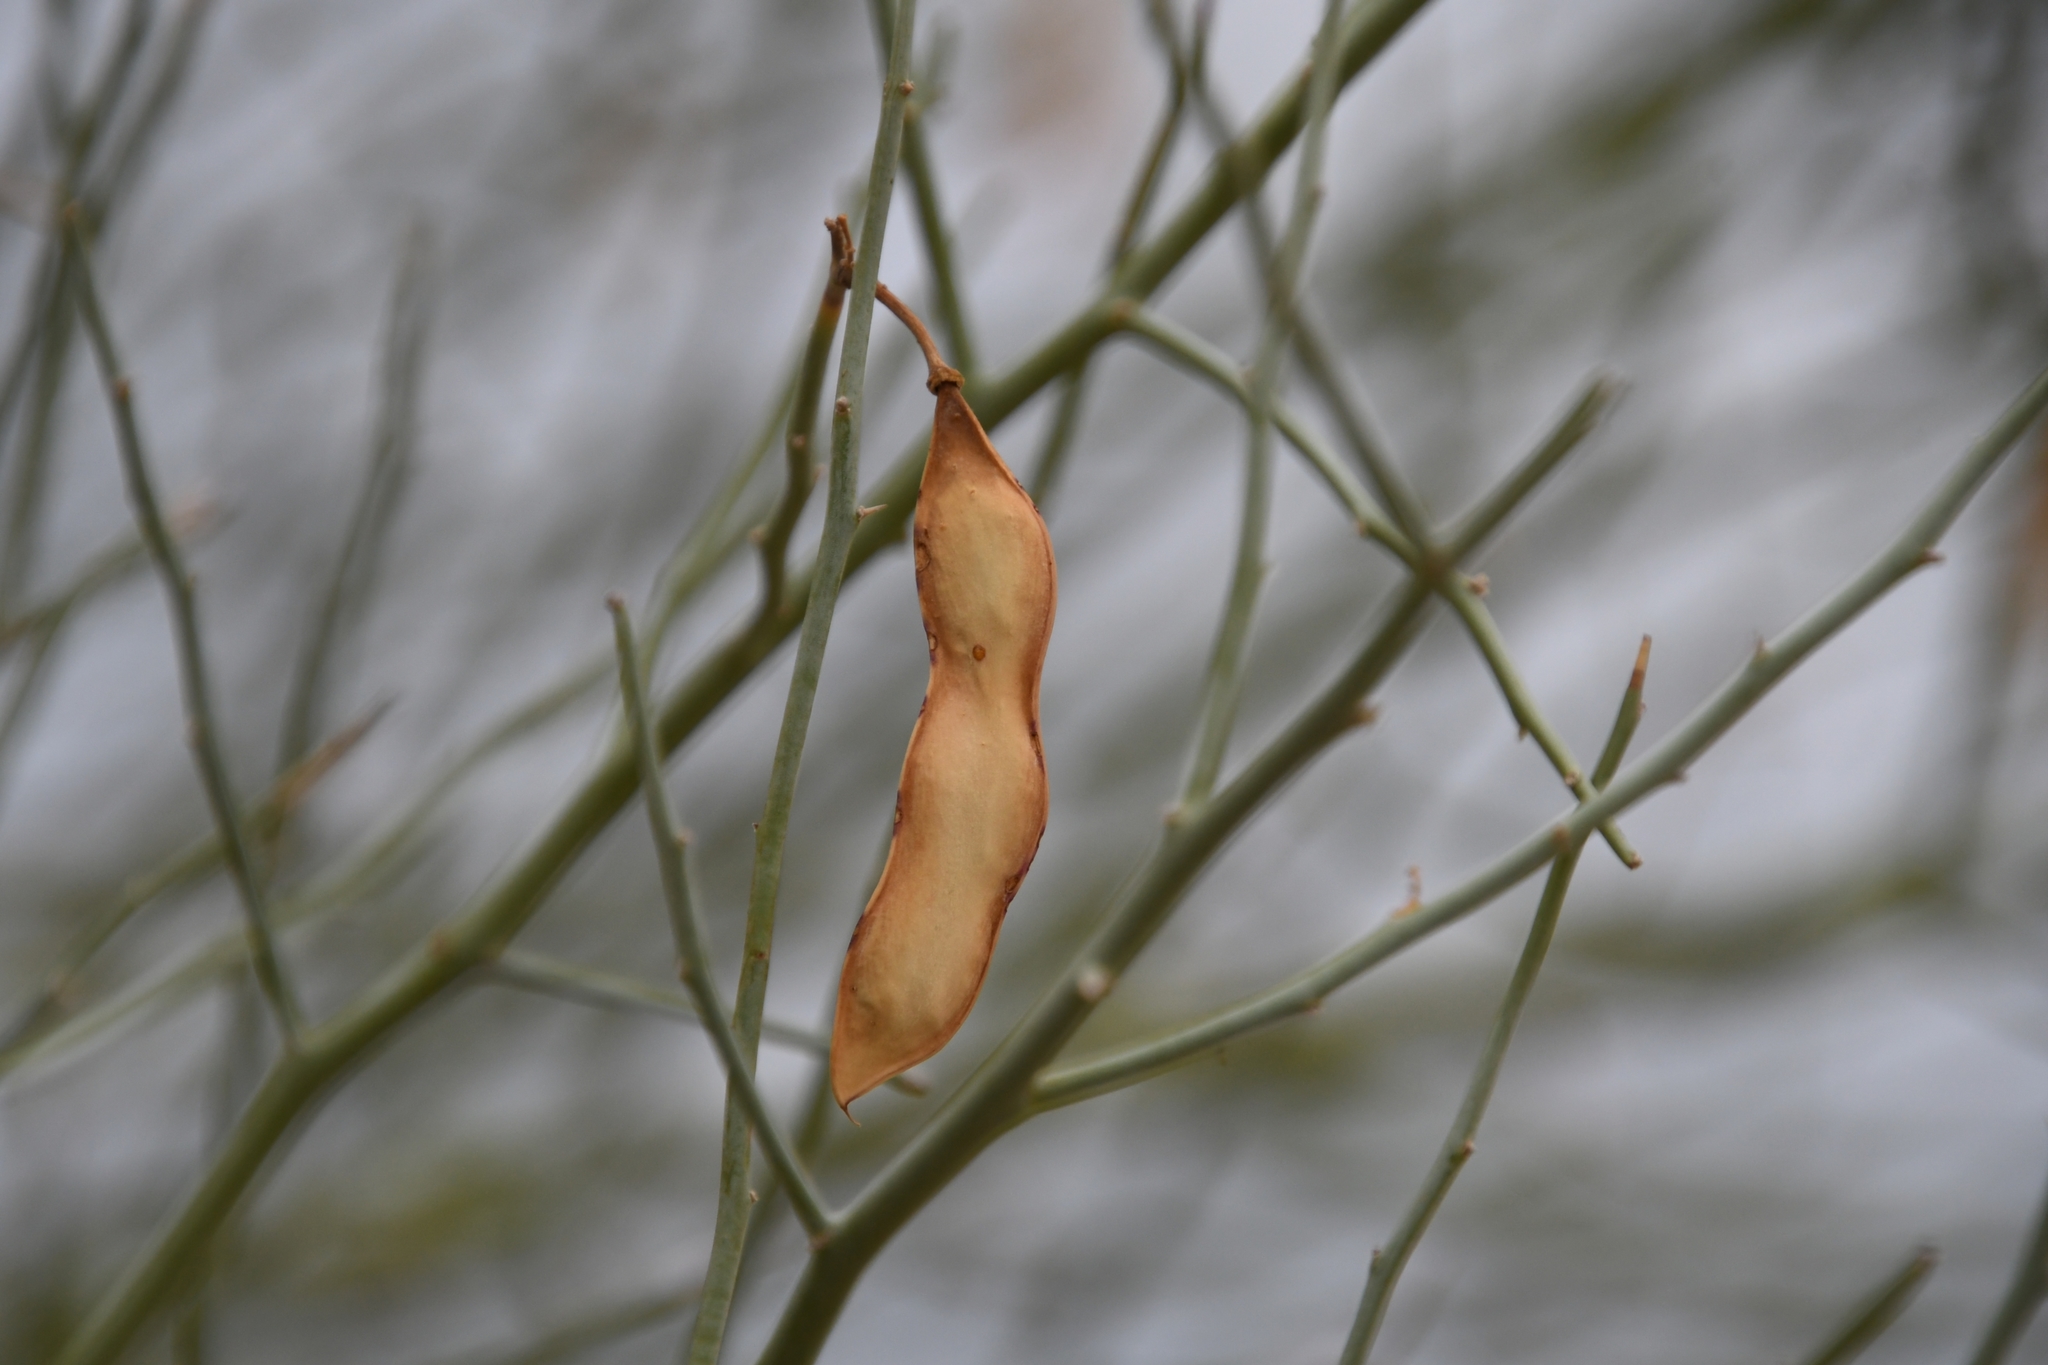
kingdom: Plantae
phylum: Tracheophyta
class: Magnoliopsida
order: Fabales
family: Fabaceae
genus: Senegalia
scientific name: Senegalia greggii
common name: Texas-mimosa
